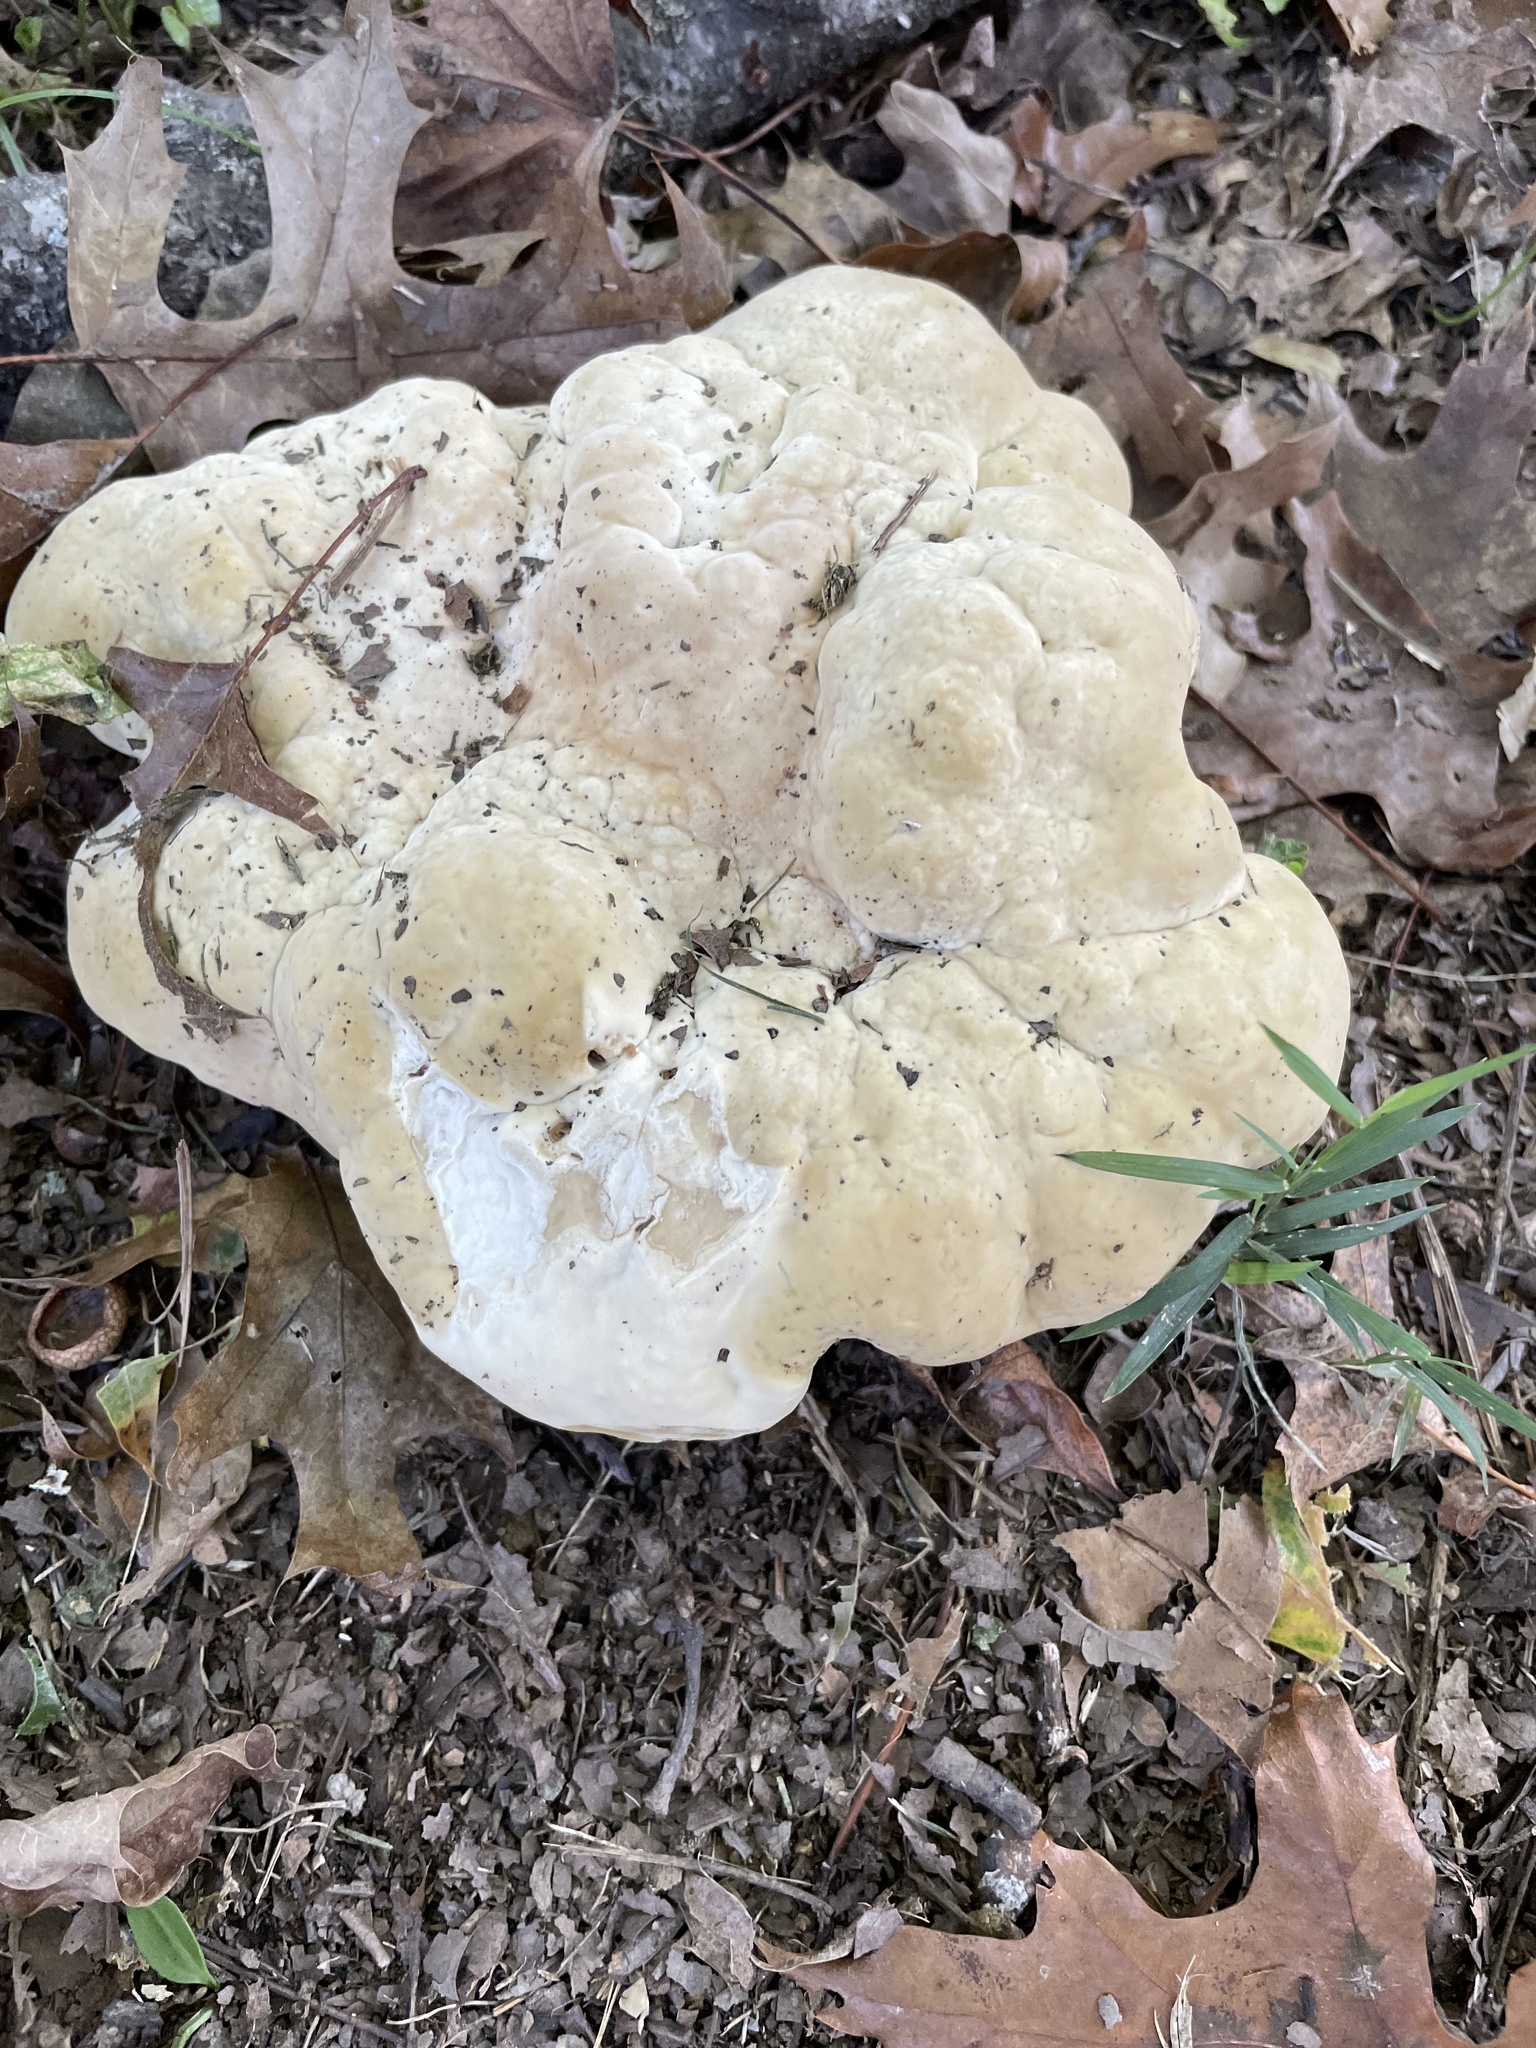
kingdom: Fungi
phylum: Basidiomycota
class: Agaricomycetes
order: Hymenochaetales
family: Hymenochaetaceae
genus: Pseudoinonotus
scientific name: Pseudoinonotus dryadeus
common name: Oak bracket
